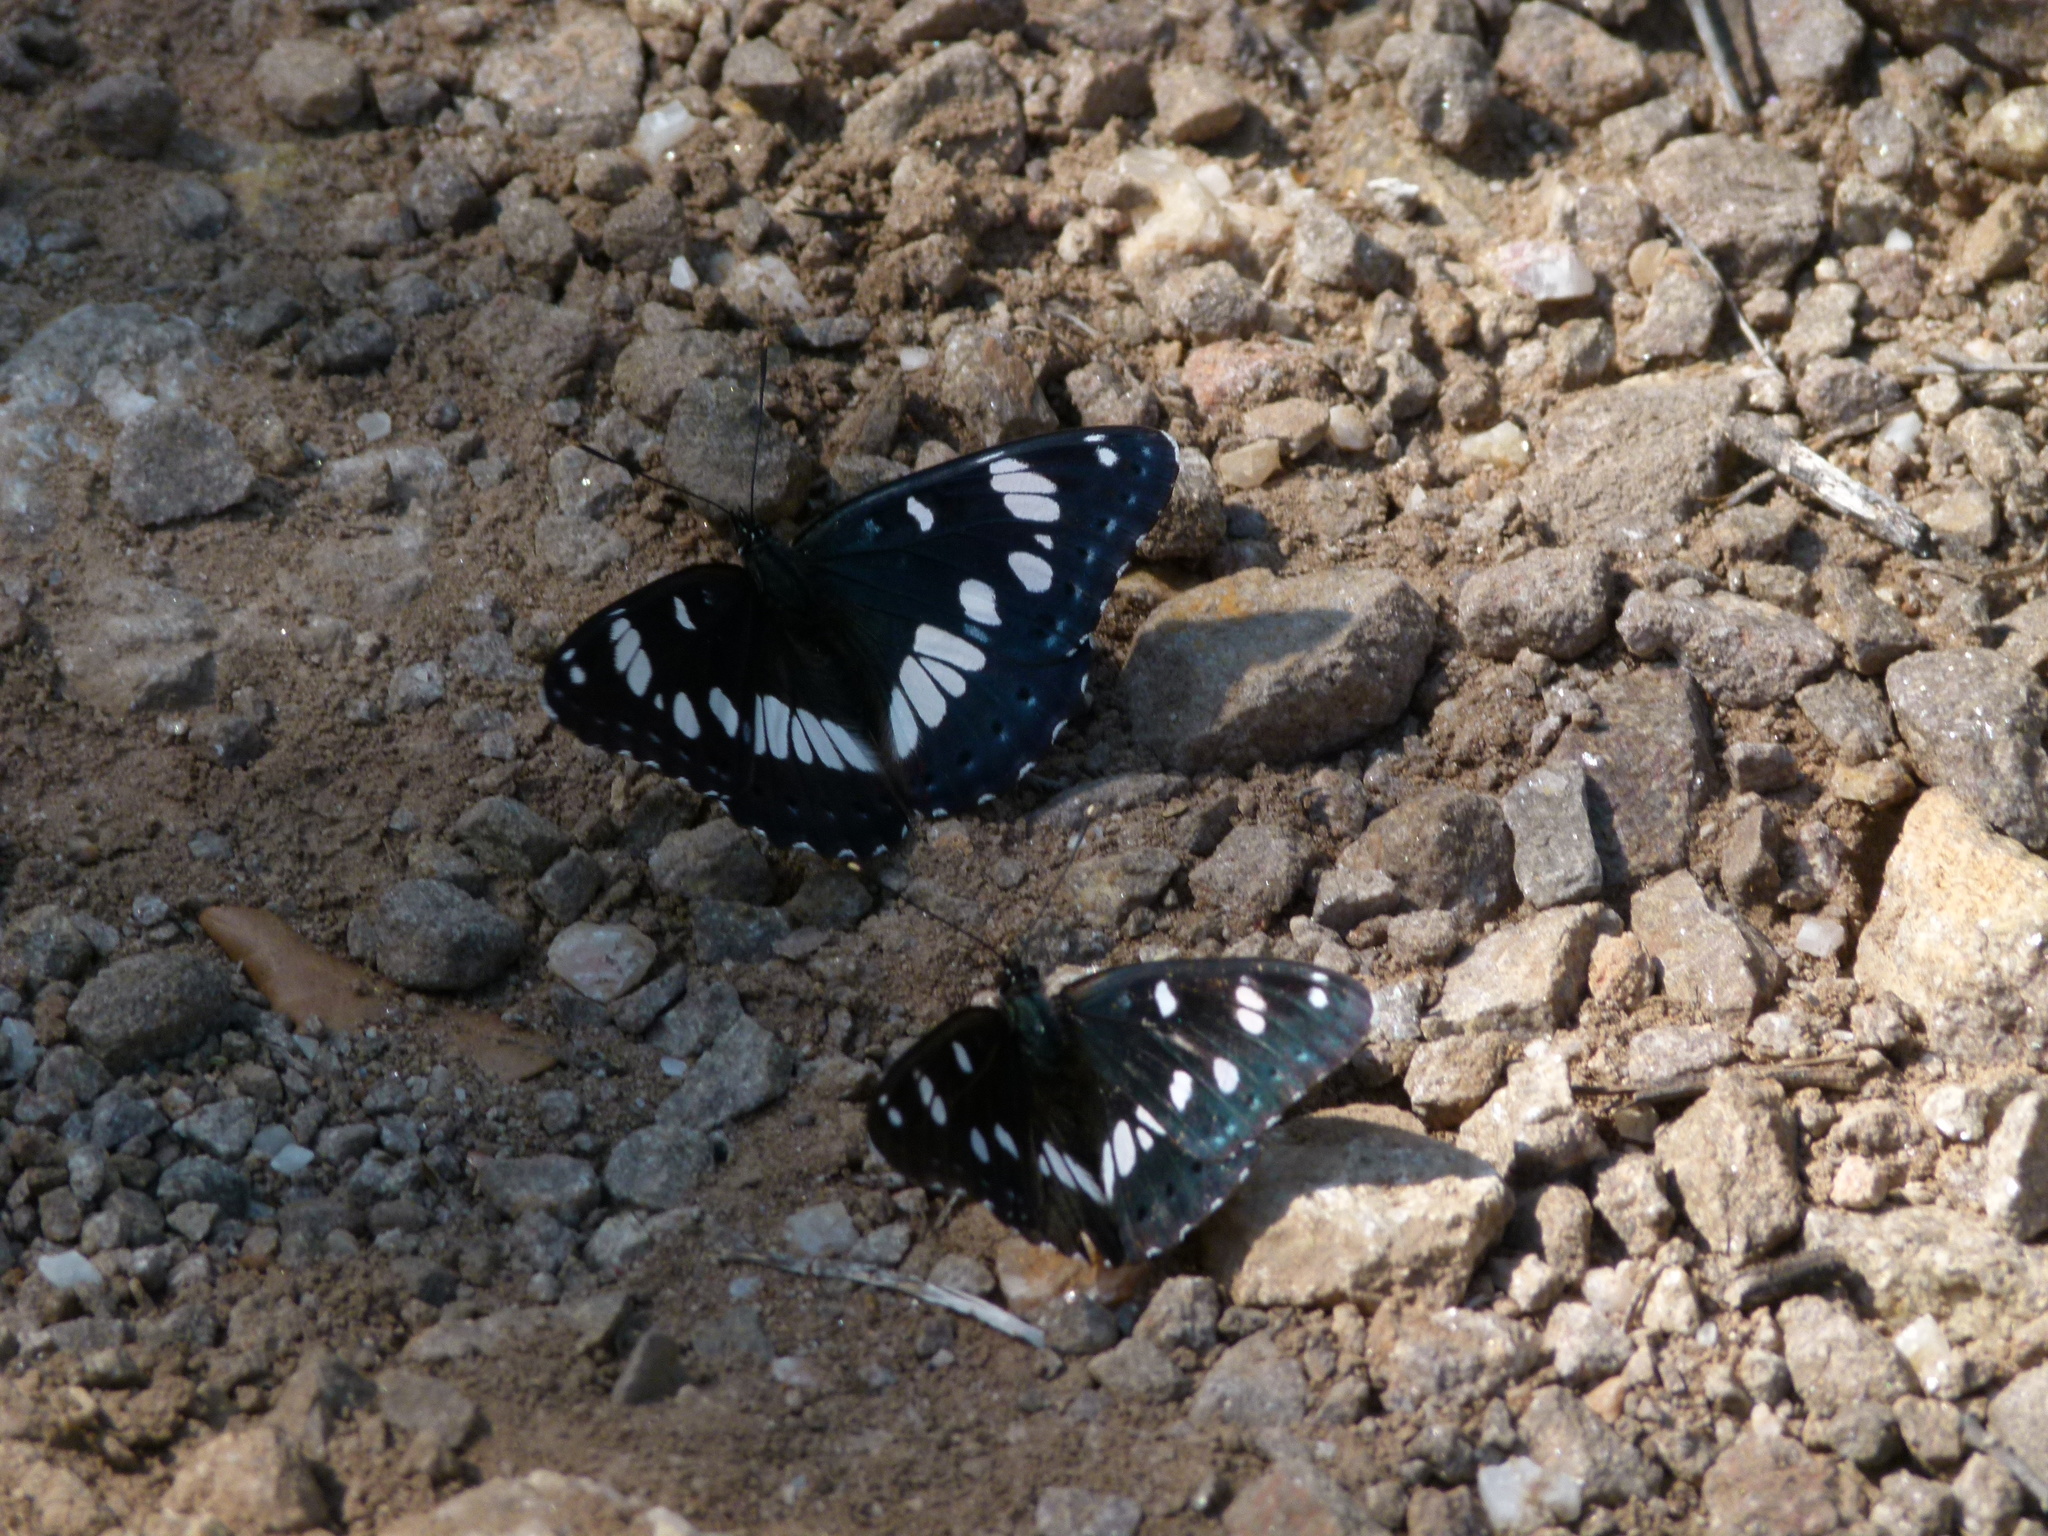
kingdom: Animalia
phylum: Arthropoda
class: Insecta
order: Lepidoptera
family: Nymphalidae
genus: Limenitis
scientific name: Limenitis reducta
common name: Southern white admiral
